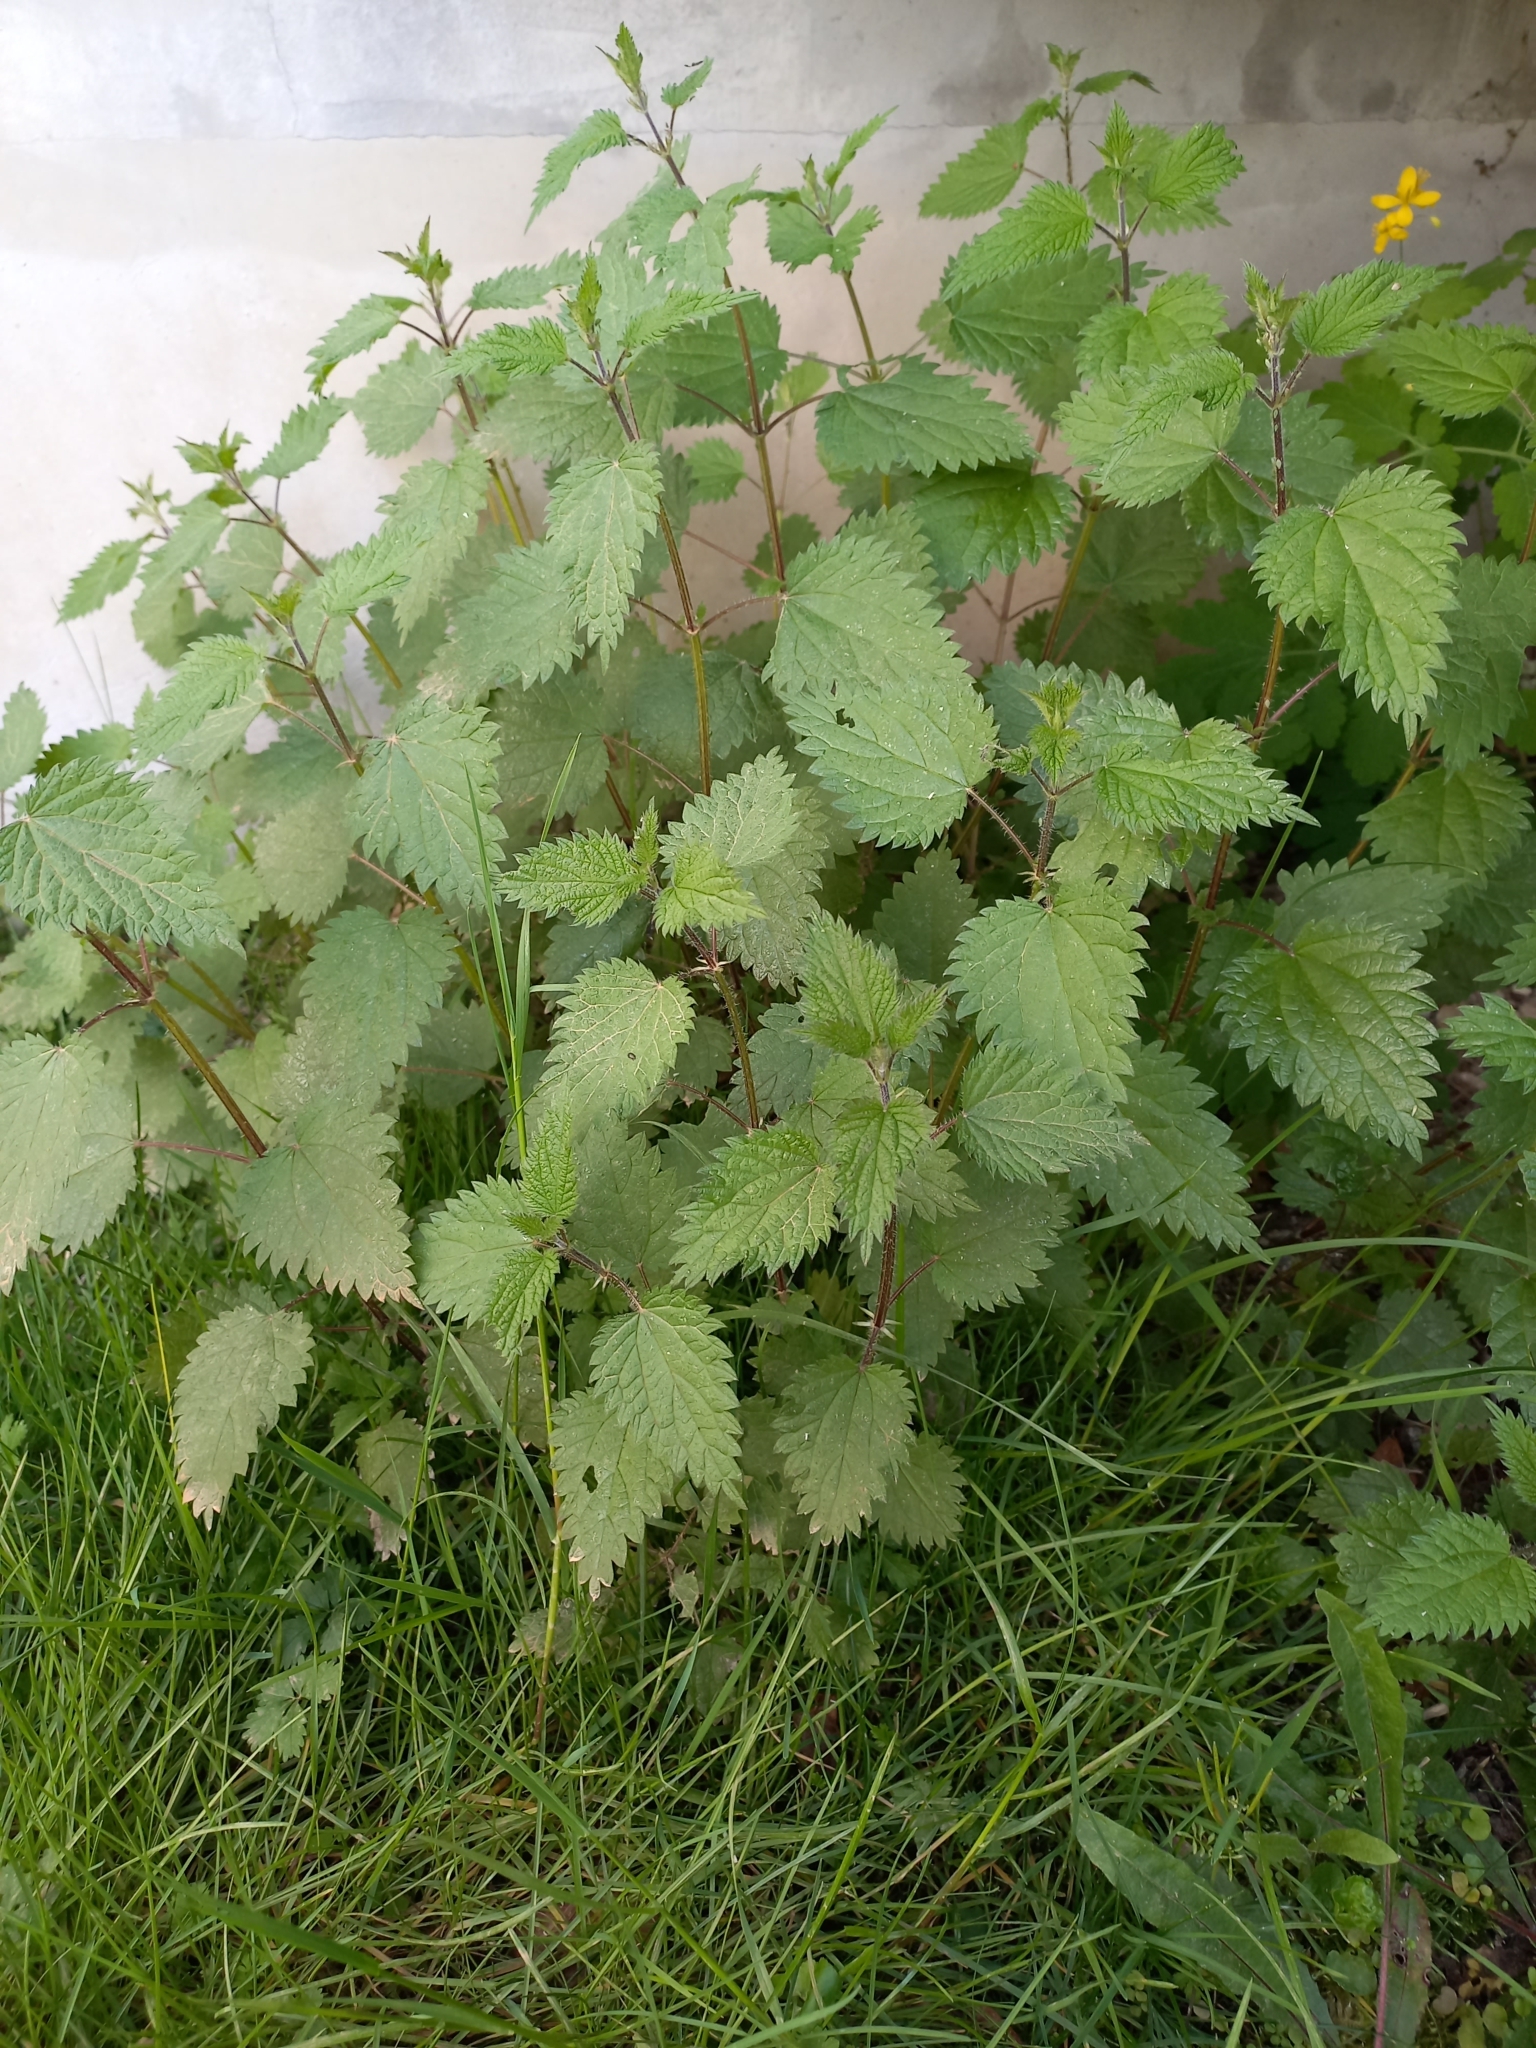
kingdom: Plantae
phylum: Tracheophyta
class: Magnoliopsida
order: Rosales
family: Urticaceae
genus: Urtica
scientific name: Urtica dioica
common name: Common nettle
